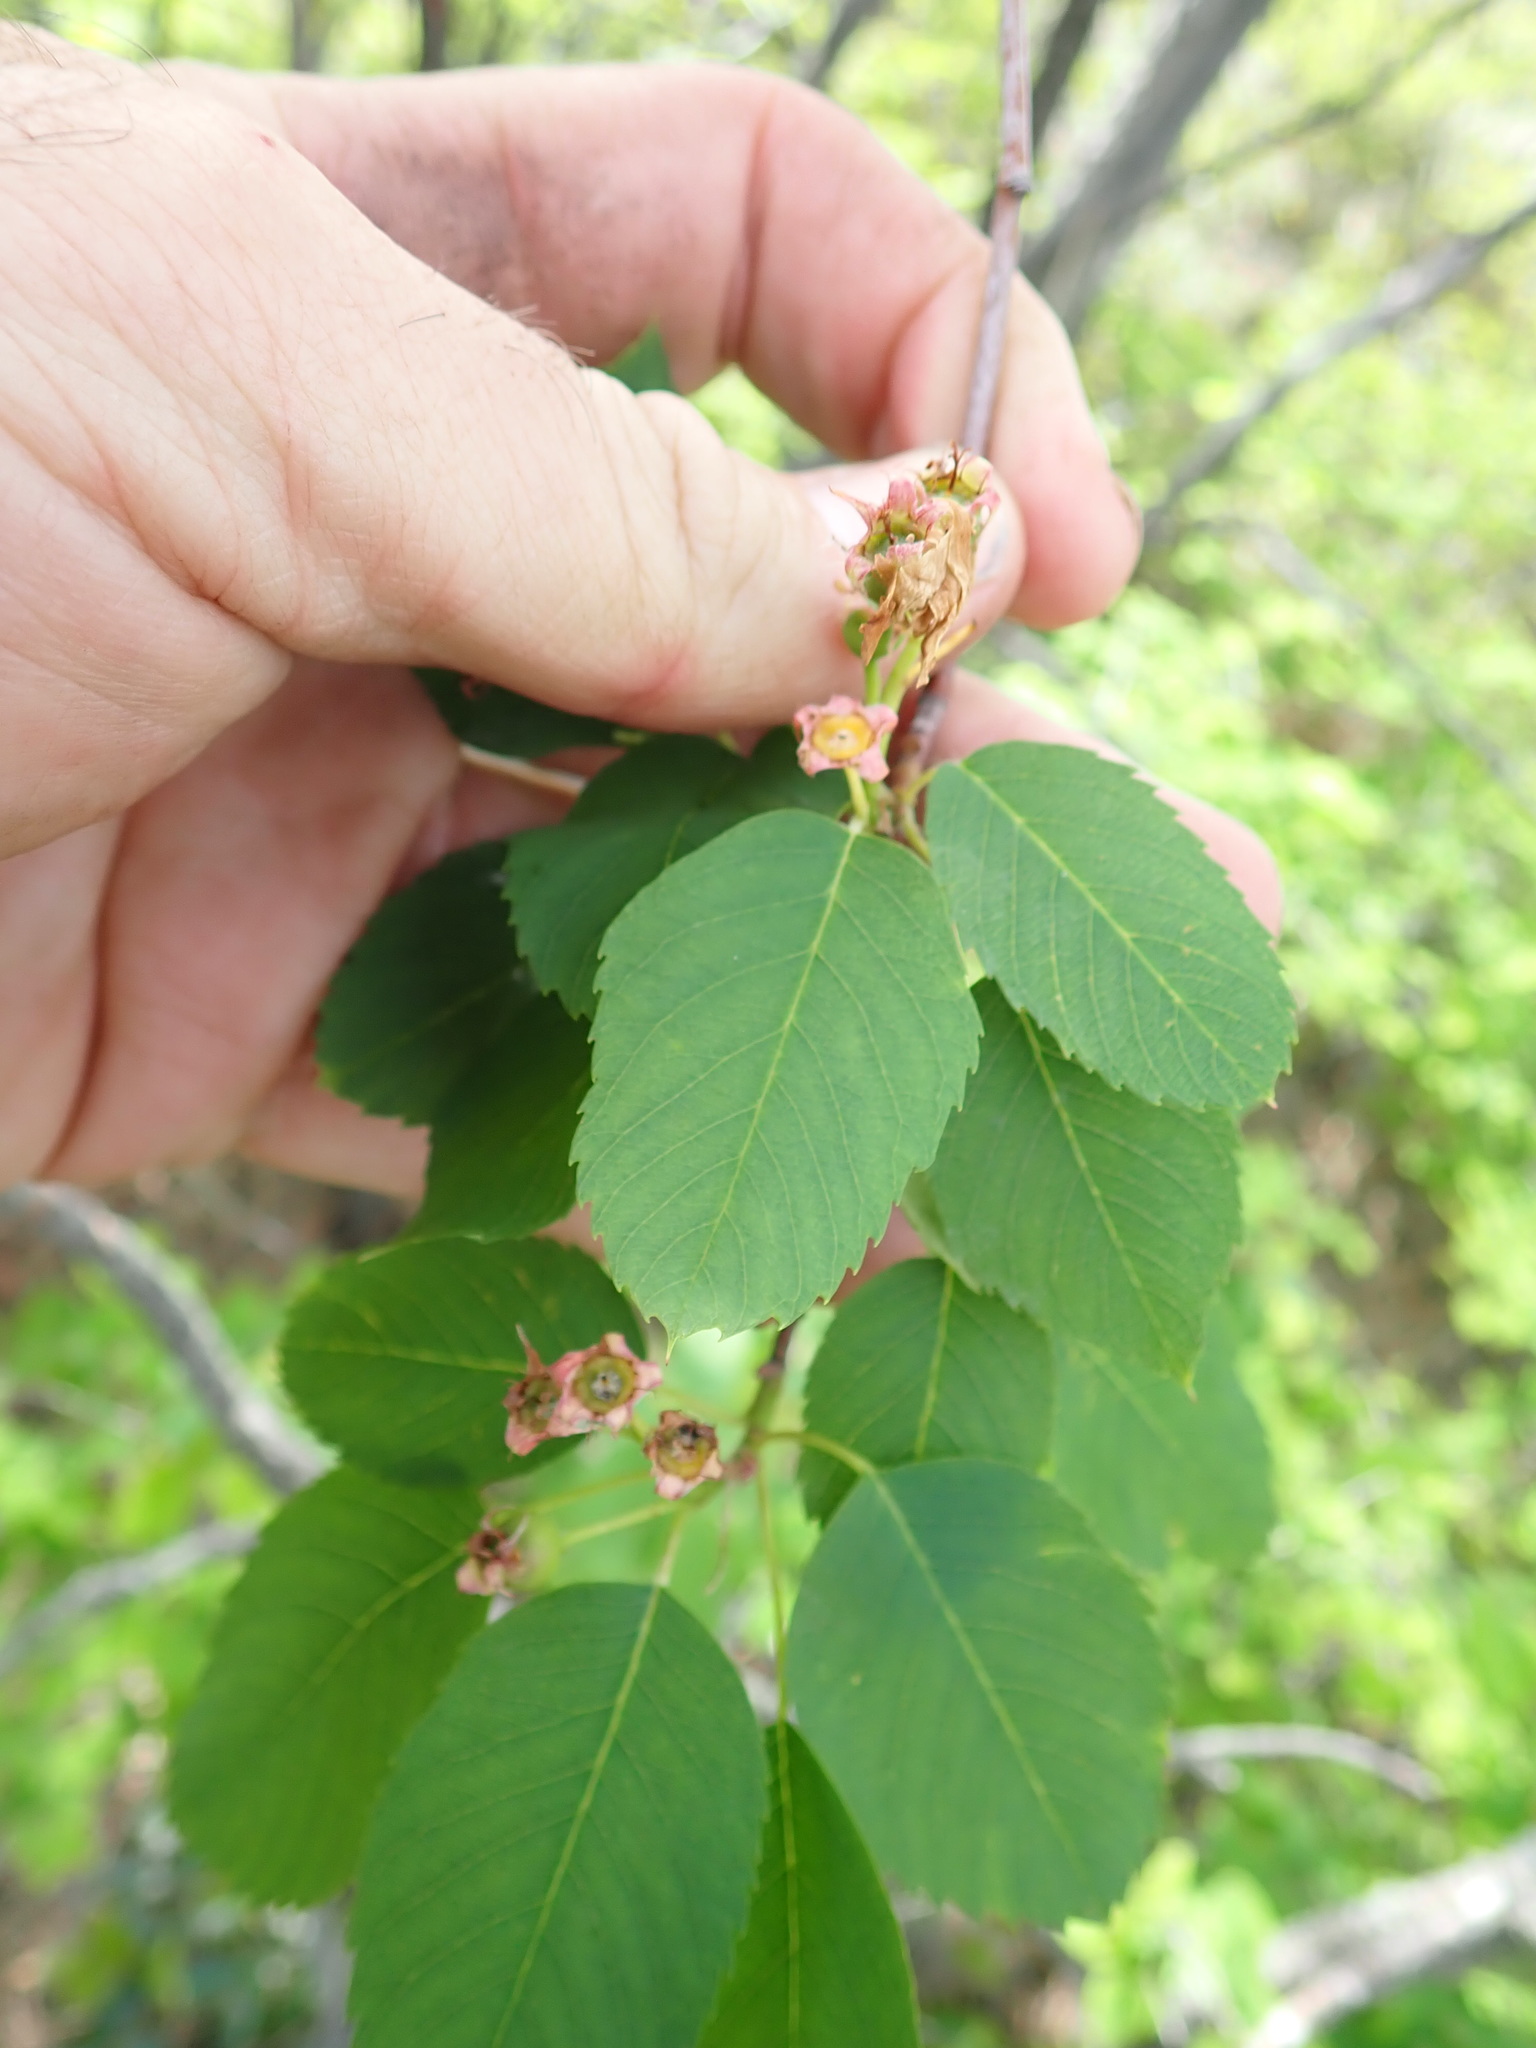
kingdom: Plantae
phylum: Tracheophyta
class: Magnoliopsida
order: Rosales
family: Rosaceae
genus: Amelanchier
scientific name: Amelanchier alnifolia
